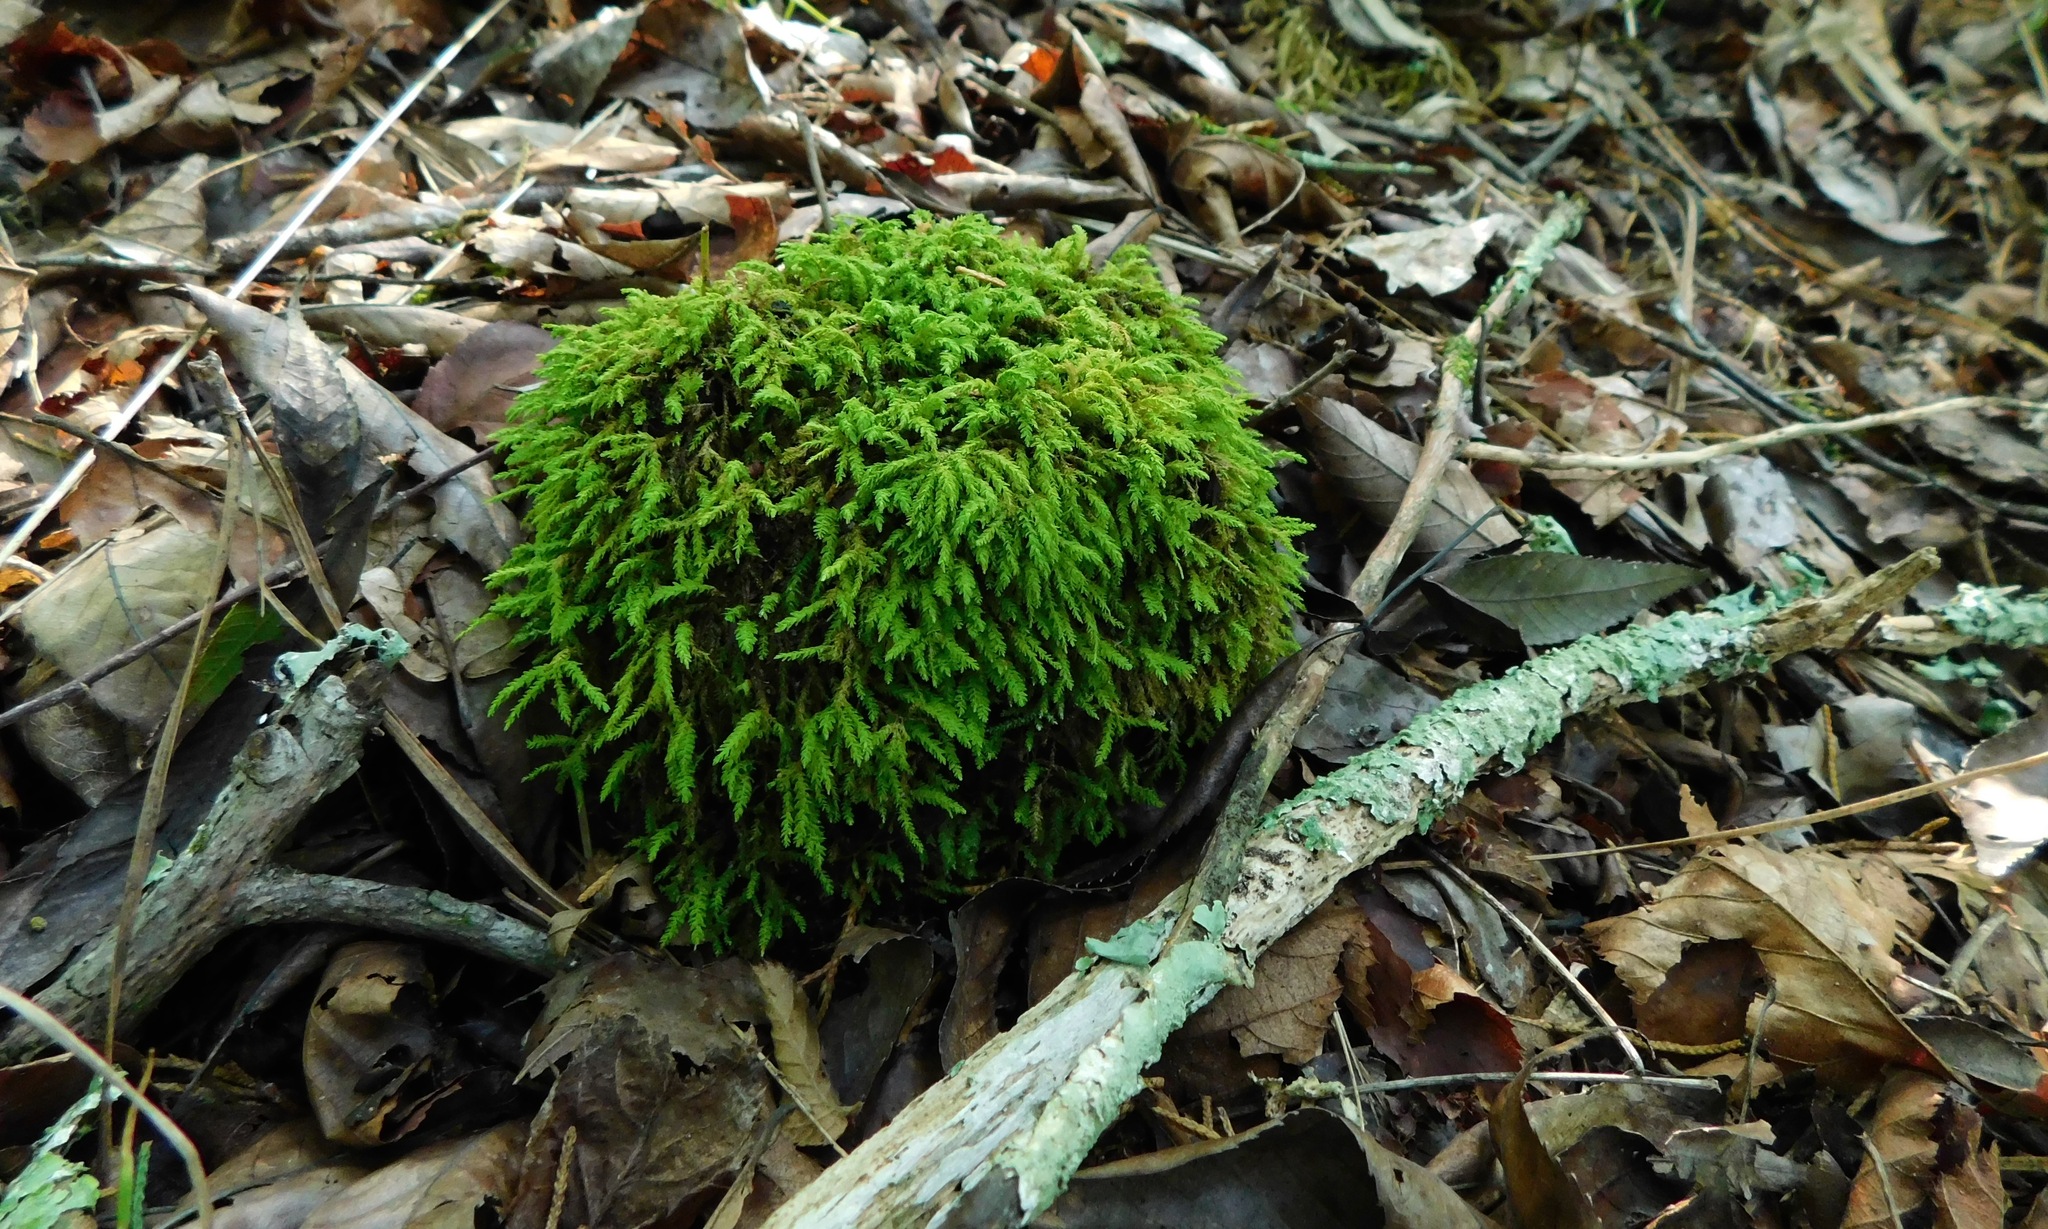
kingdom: Plantae
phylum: Bryophyta
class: Bryopsida
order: Hypnales
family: Anomodontaceae
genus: Anomodontopsis
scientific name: Anomodontopsis rugelii
